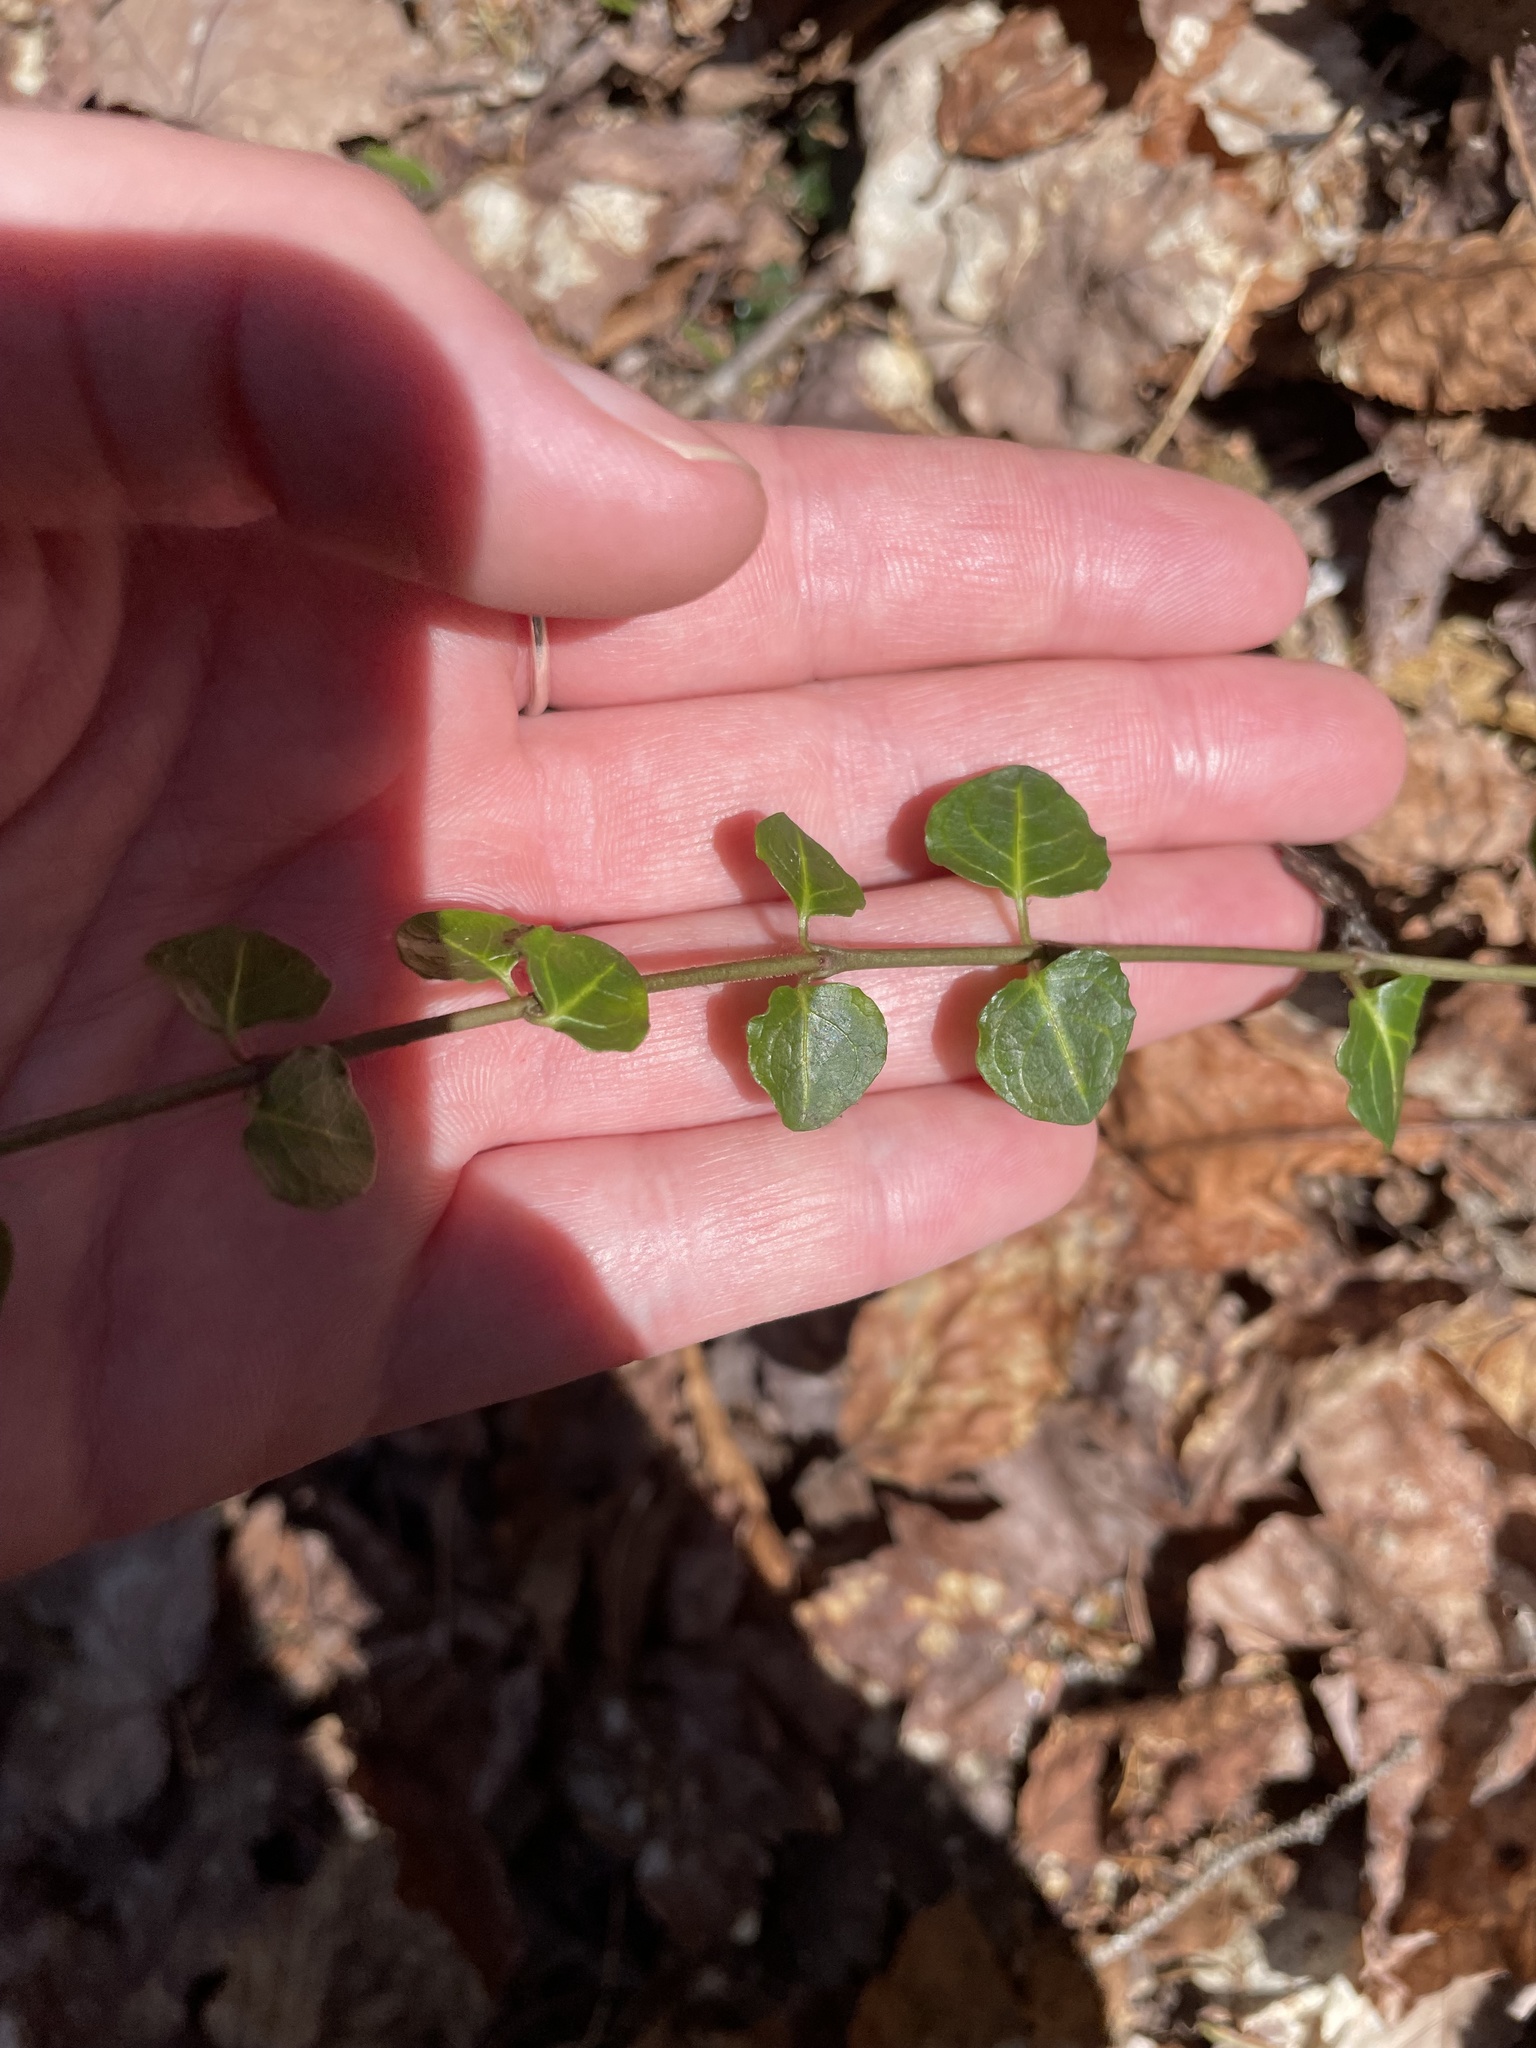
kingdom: Plantae
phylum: Tracheophyta
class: Magnoliopsida
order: Gentianales
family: Rubiaceae
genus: Mitchella
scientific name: Mitchella repens
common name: Partridge-berry
